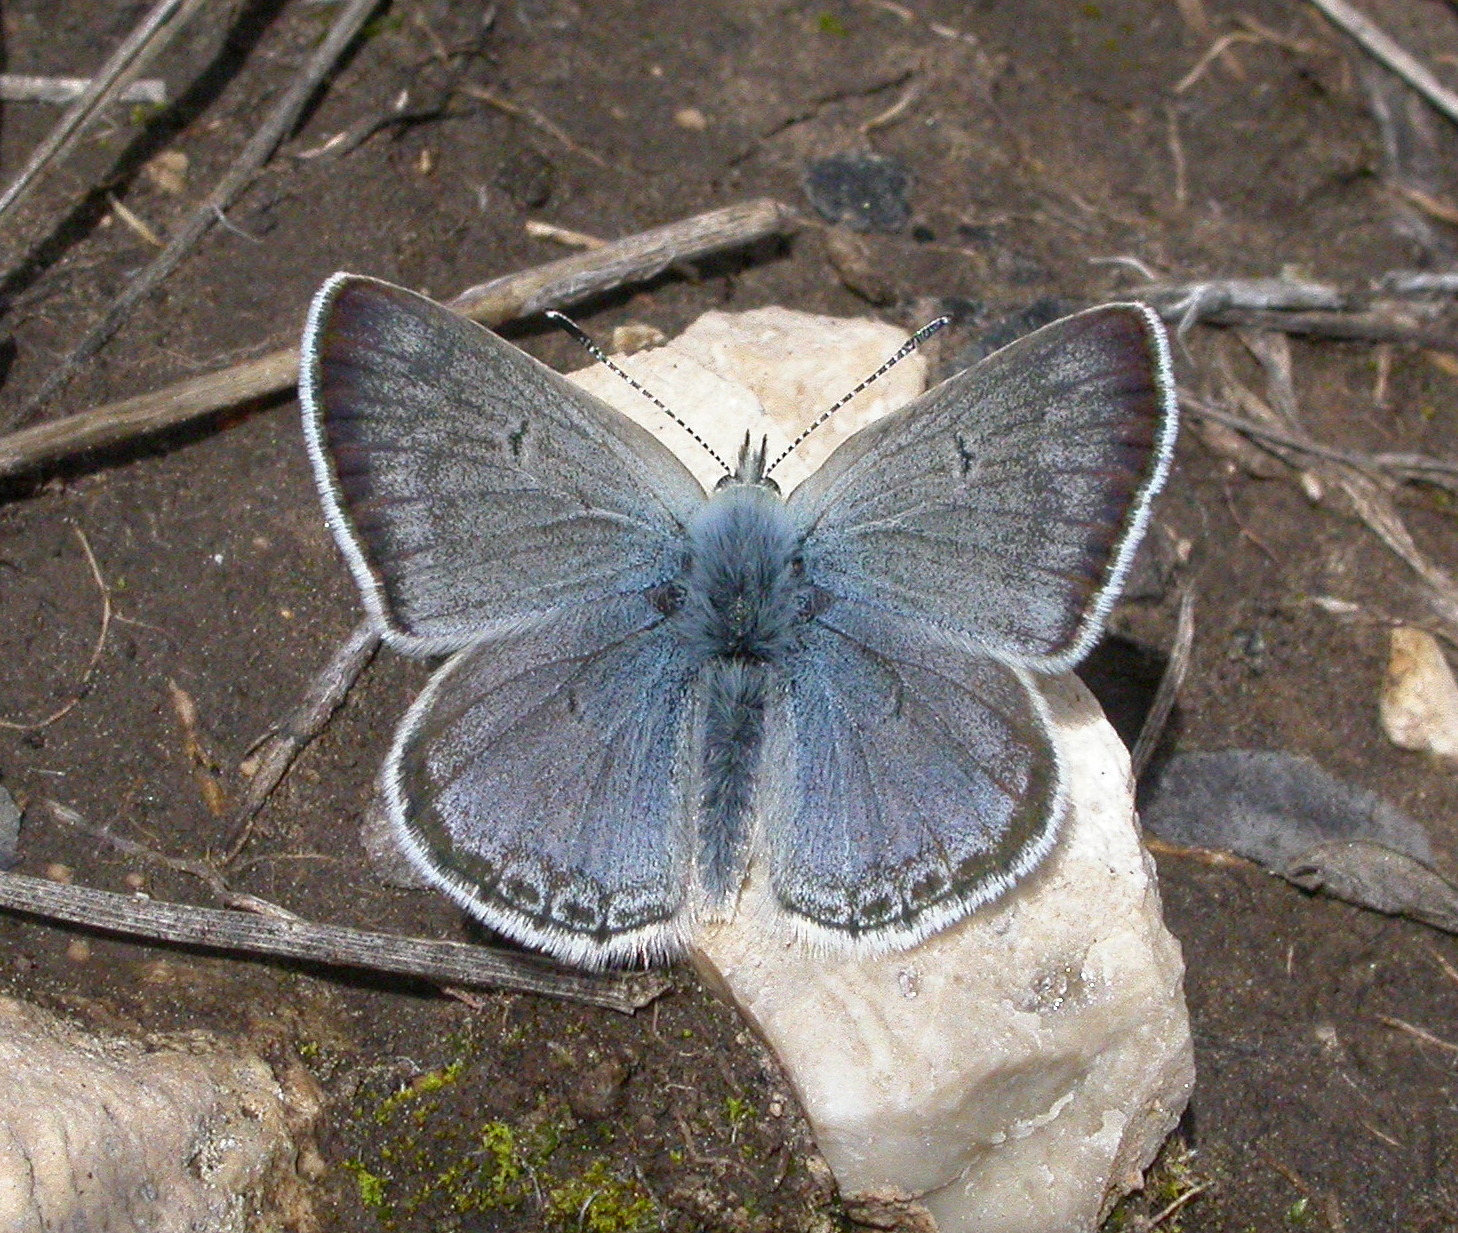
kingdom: Animalia
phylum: Arthropoda
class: Insecta
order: Lepidoptera
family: Lycaenidae
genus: Agriades
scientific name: Agriades glandon
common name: Glandon blue
